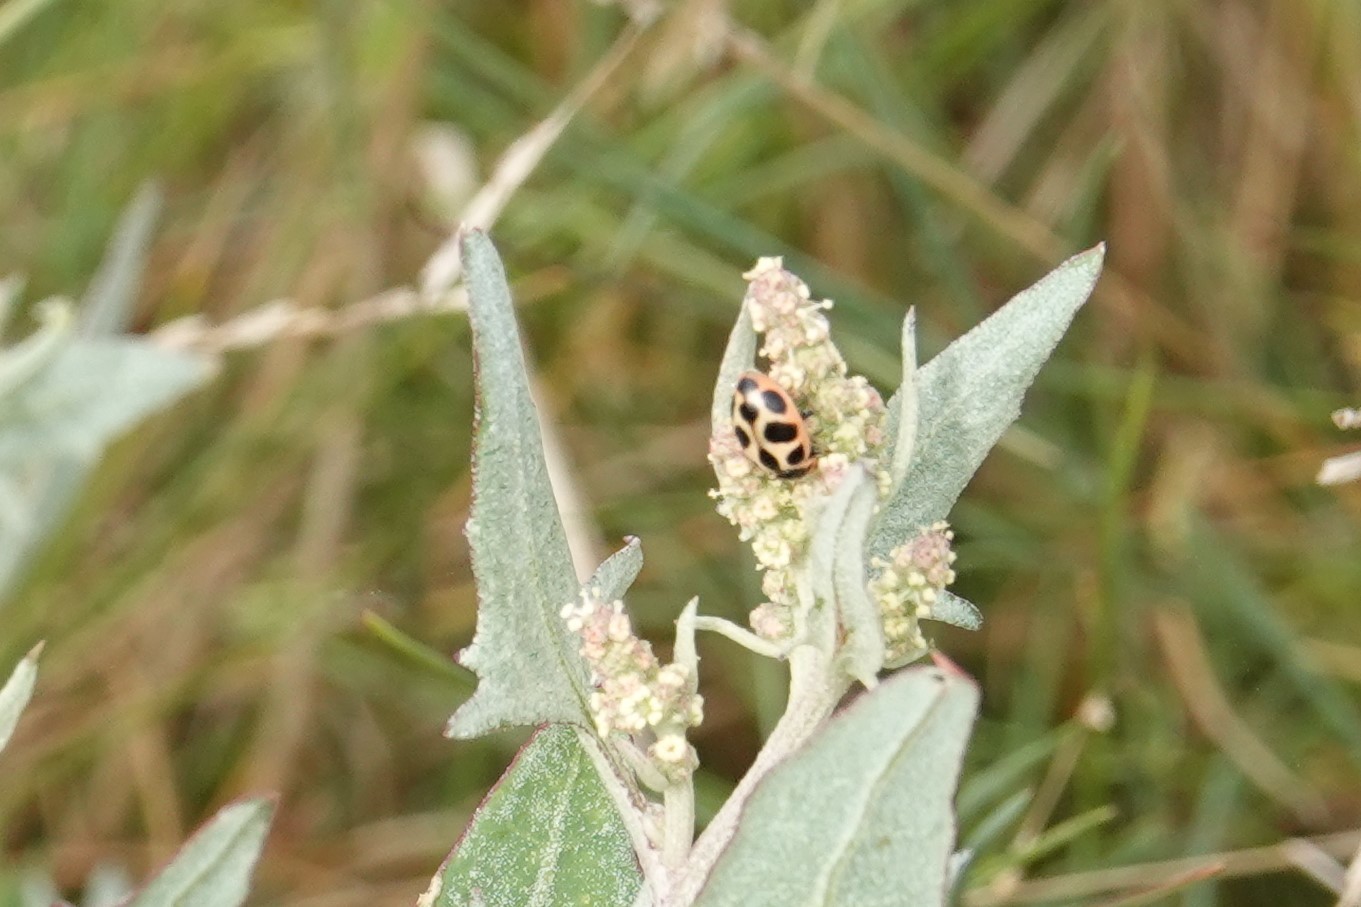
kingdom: Animalia
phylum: Arthropoda
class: Insecta
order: Coleoptera
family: Coccinellidae
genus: Naemia
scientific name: Naemia seriata
